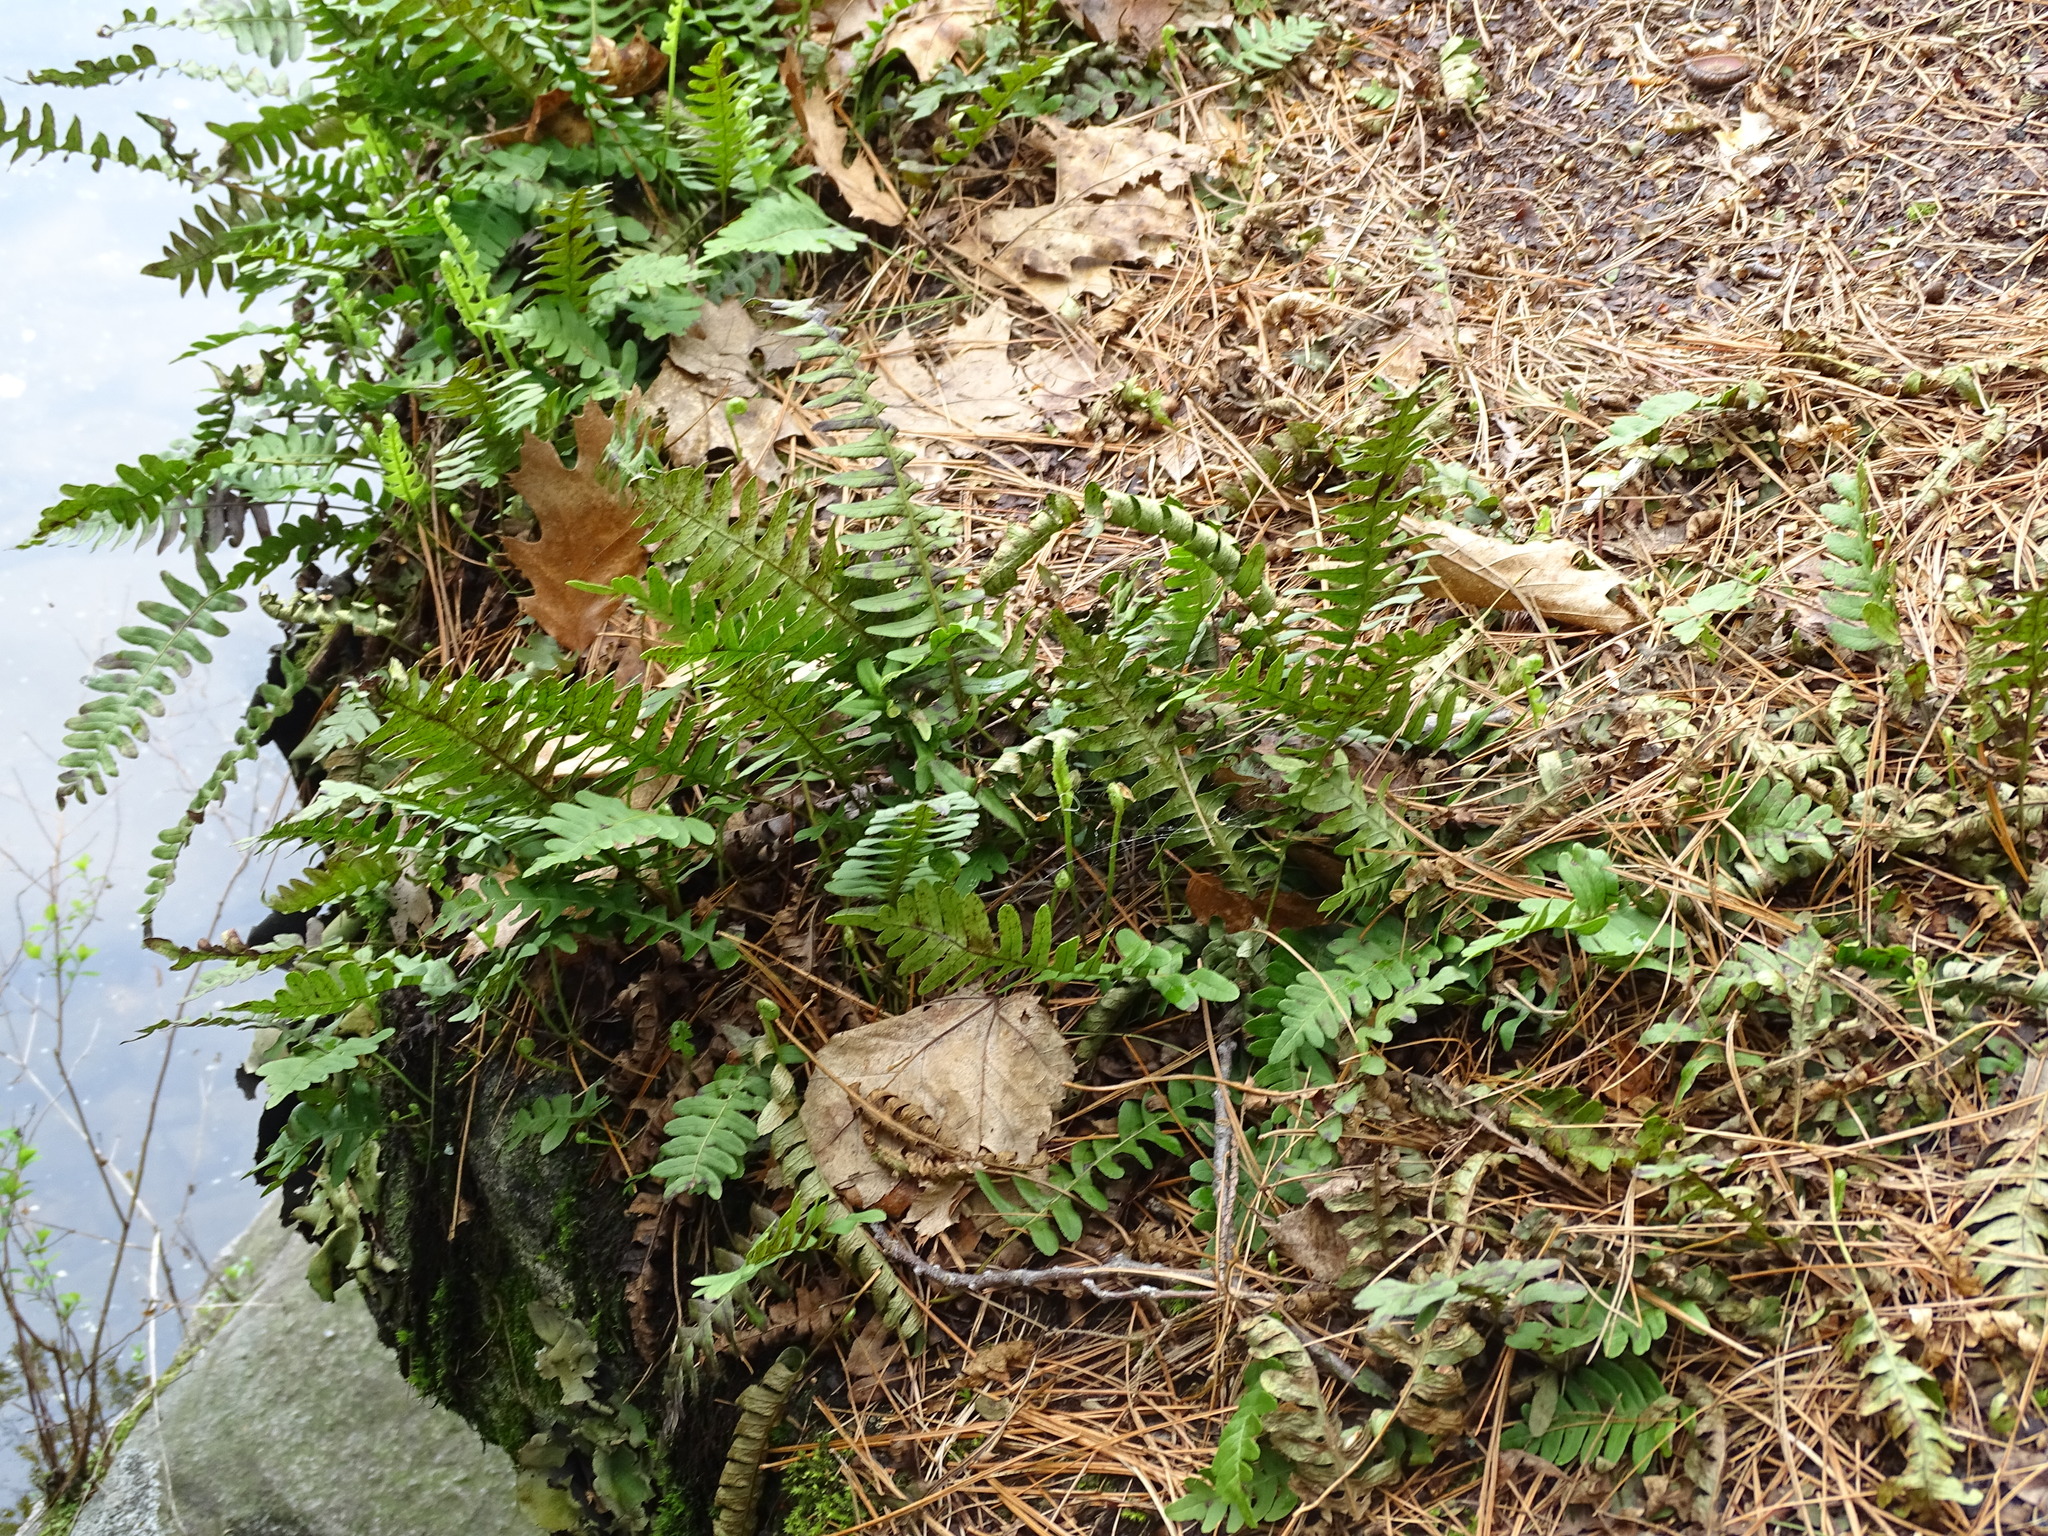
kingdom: Plantae
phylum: Tracheophyta
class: Polypodiopsida
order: Polypodiales
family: Polypodiaceae
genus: Polypodium
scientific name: Polypodium virginianum
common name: American wall fern
